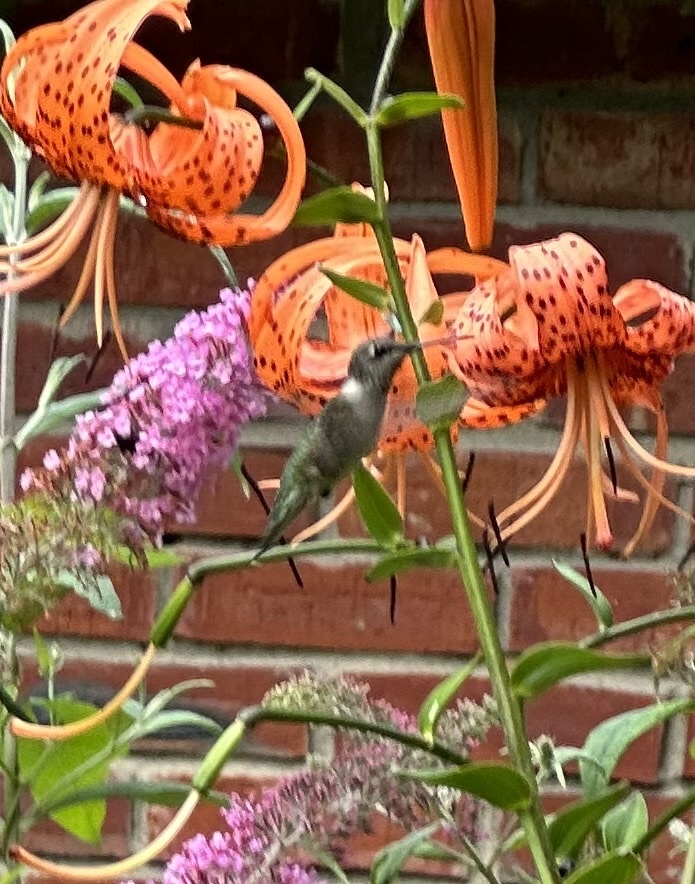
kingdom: Animalia
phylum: Chordata
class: Aves
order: Apodiformes
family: Trochilidae
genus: Archilochus
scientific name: Archilochus colubris
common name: Ruby-throated hummingbird
